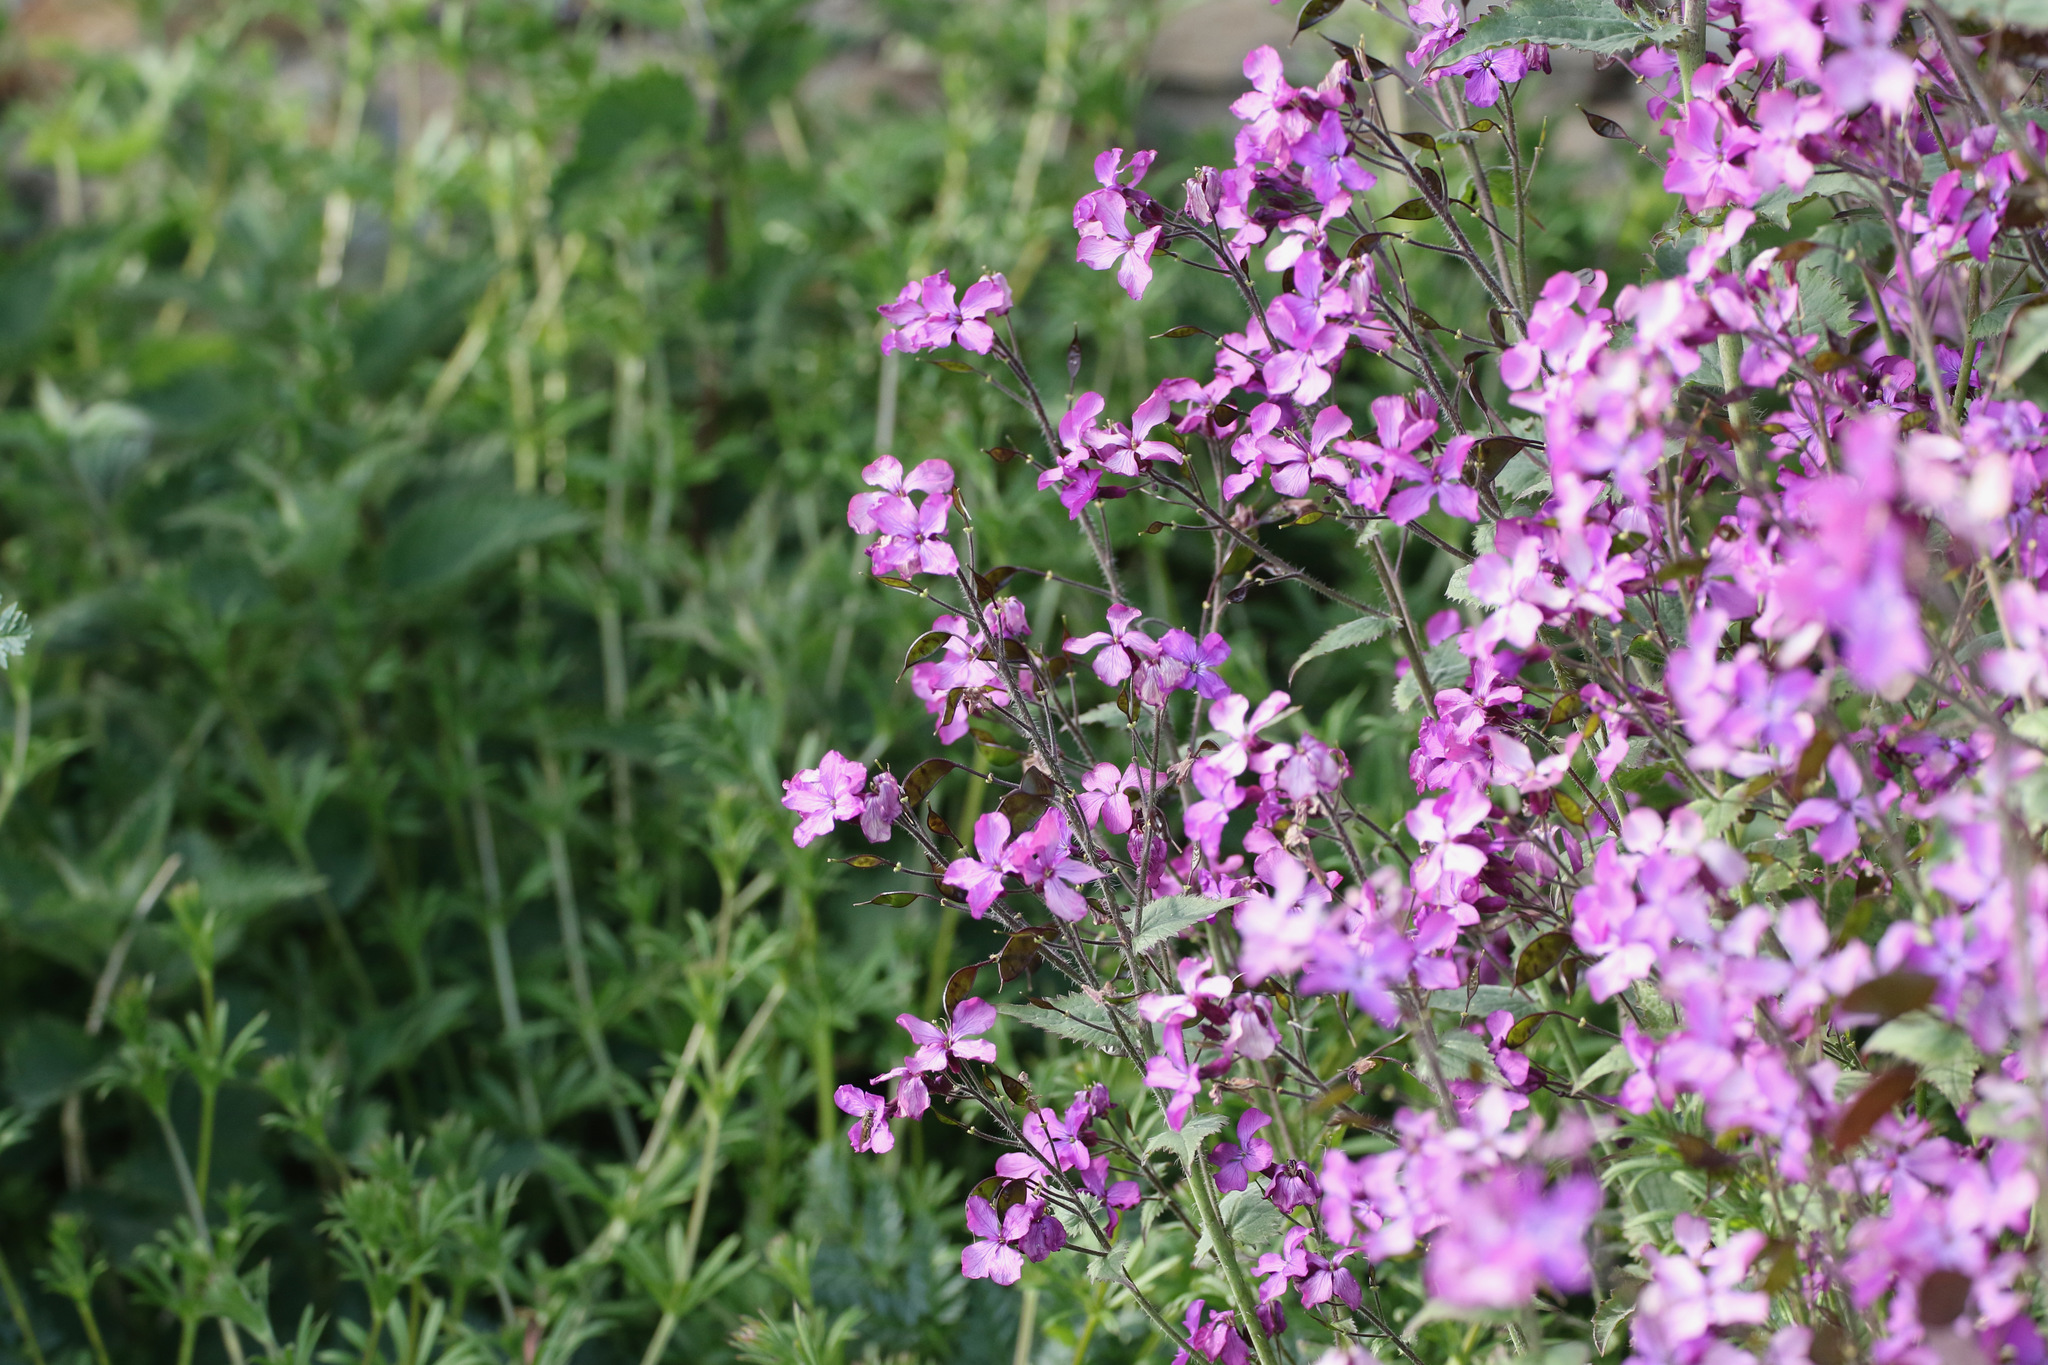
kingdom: Plantae
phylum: Tracheophyta
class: Magnoliopsida
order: Brassicales
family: Brassicaceae
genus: Lunaria
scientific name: Lunaria annua
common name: Honesty
